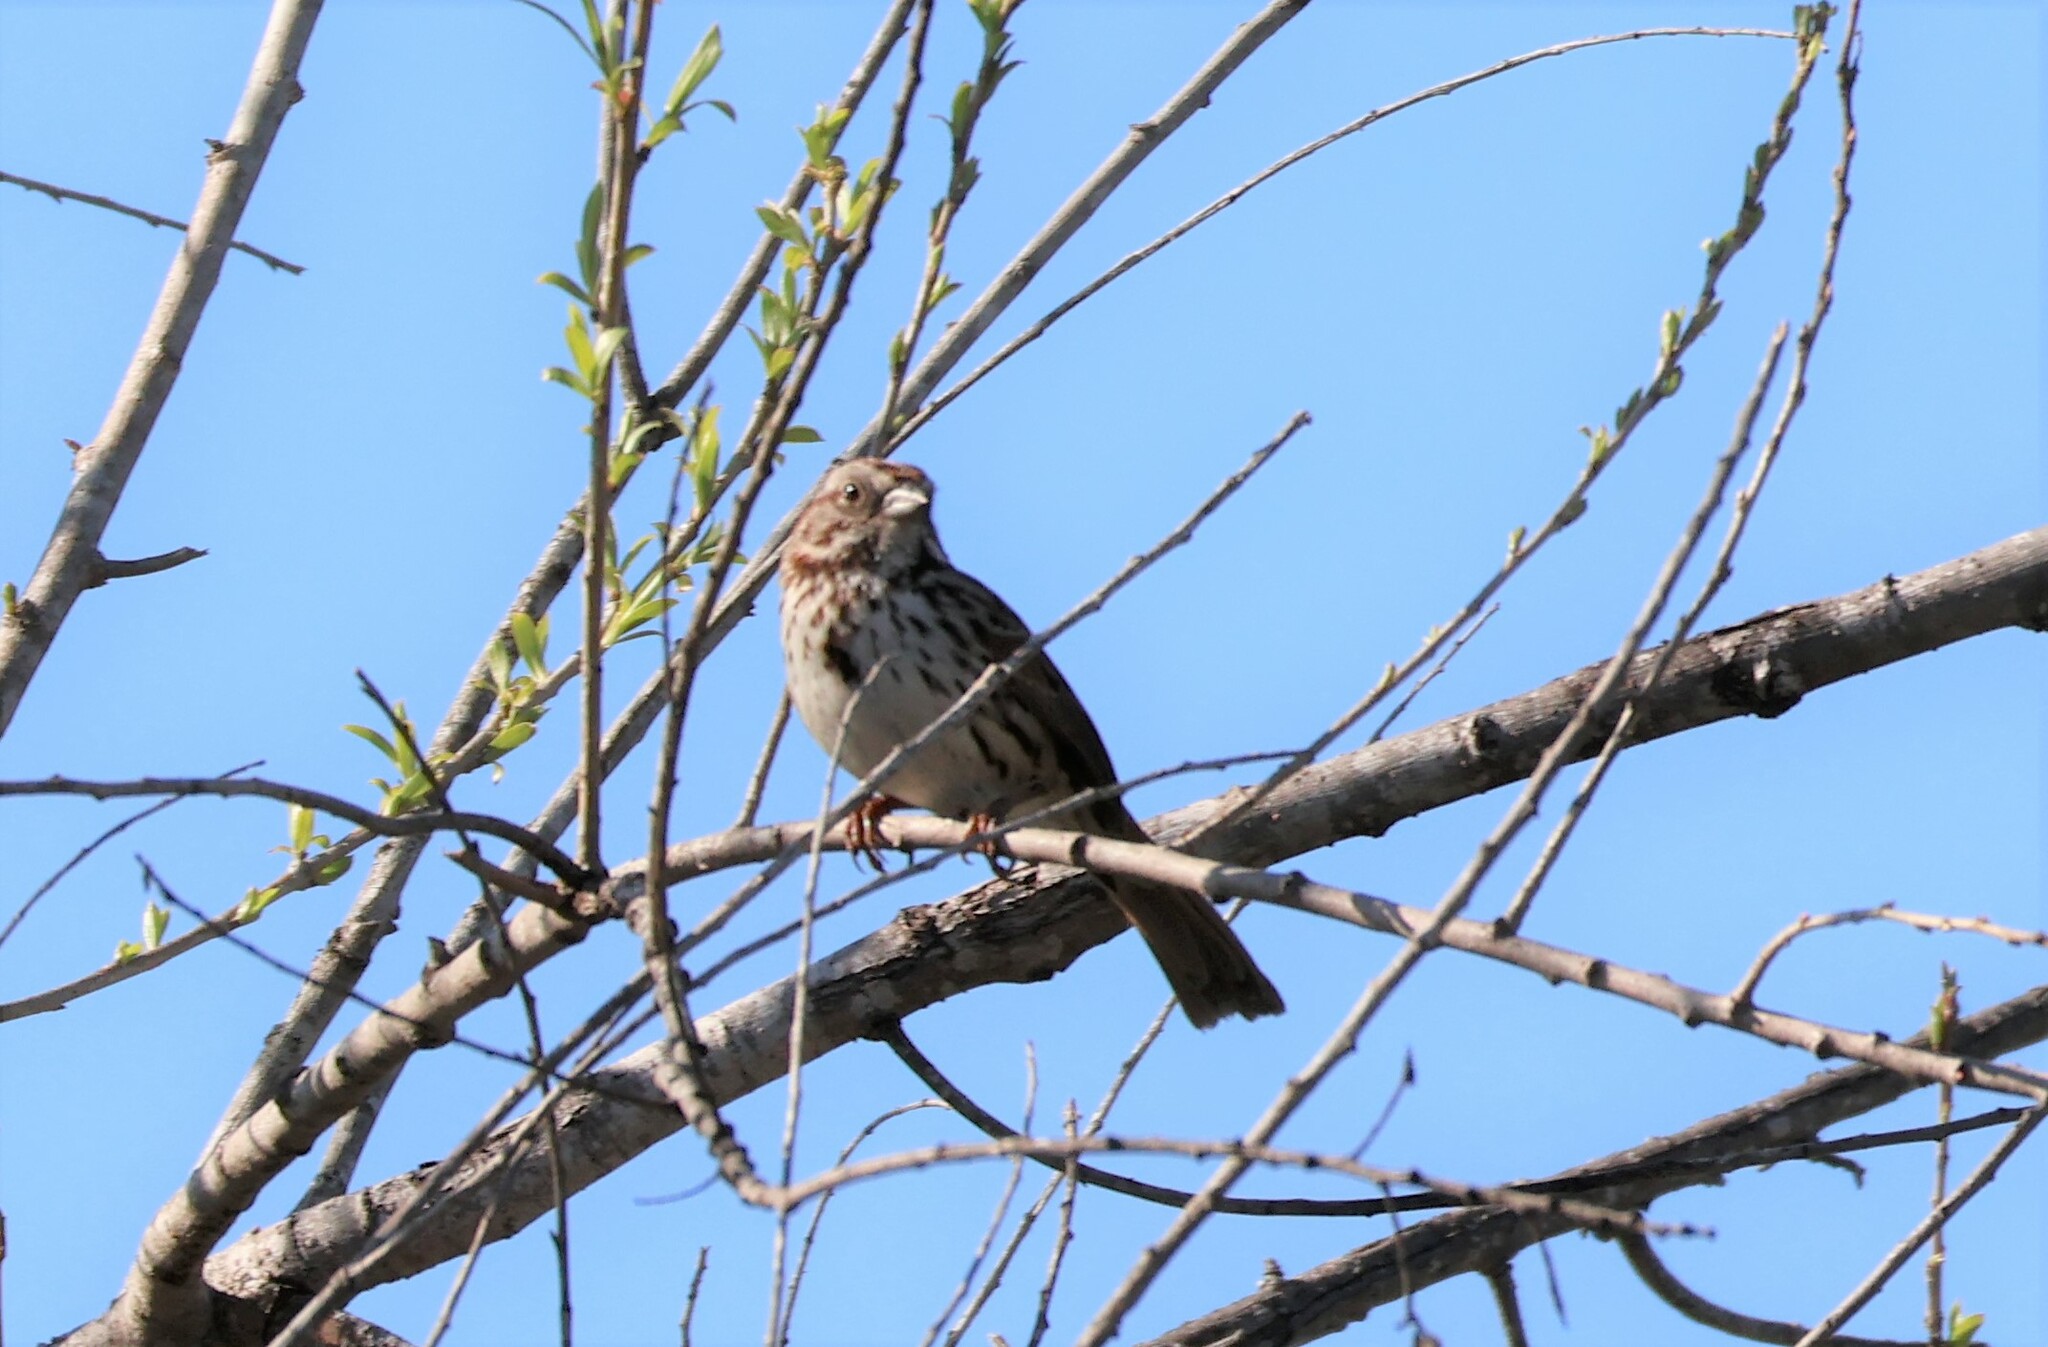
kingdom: Animalia
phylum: Chordata
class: Aves
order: Passeriformes
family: Passerellidae
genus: Melospiza
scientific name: Melospiza melodia
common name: Song sparrow
